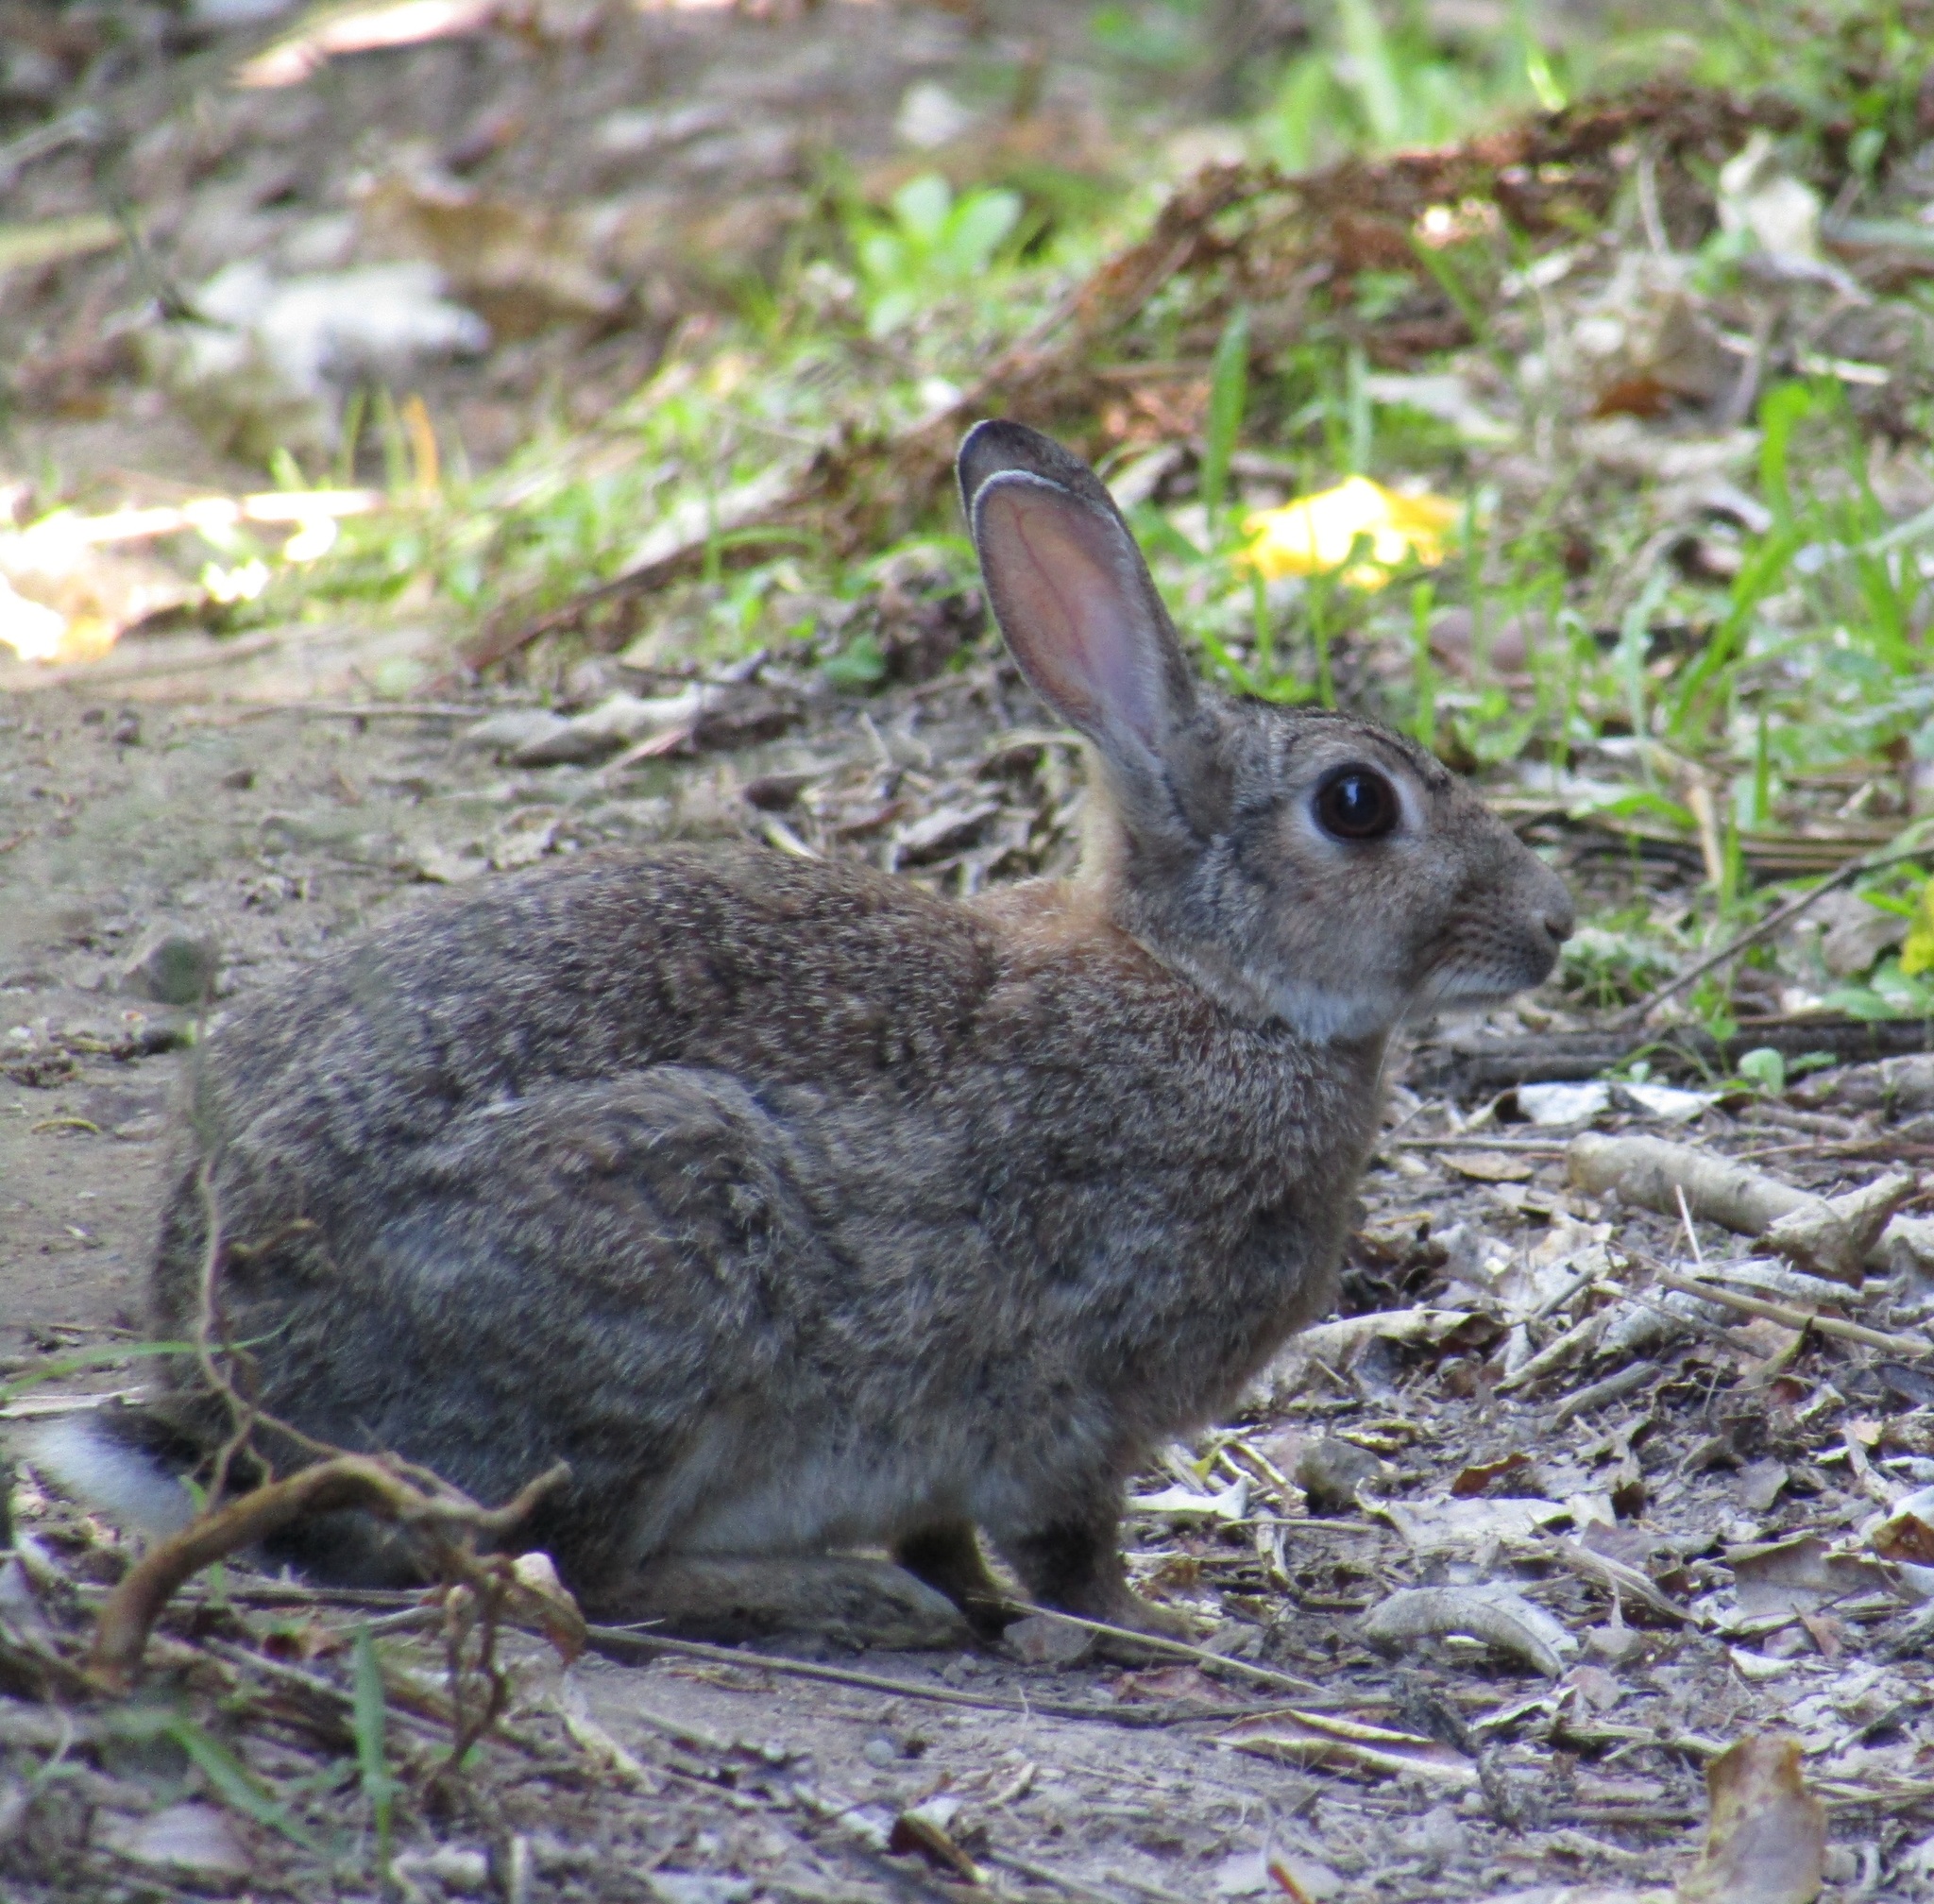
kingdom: Animalia
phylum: Chordata
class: Mammalia
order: Lagomorpha
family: Leporidae
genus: Oryctolagus
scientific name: Oryctolagus cuniculus
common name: European rabbit
